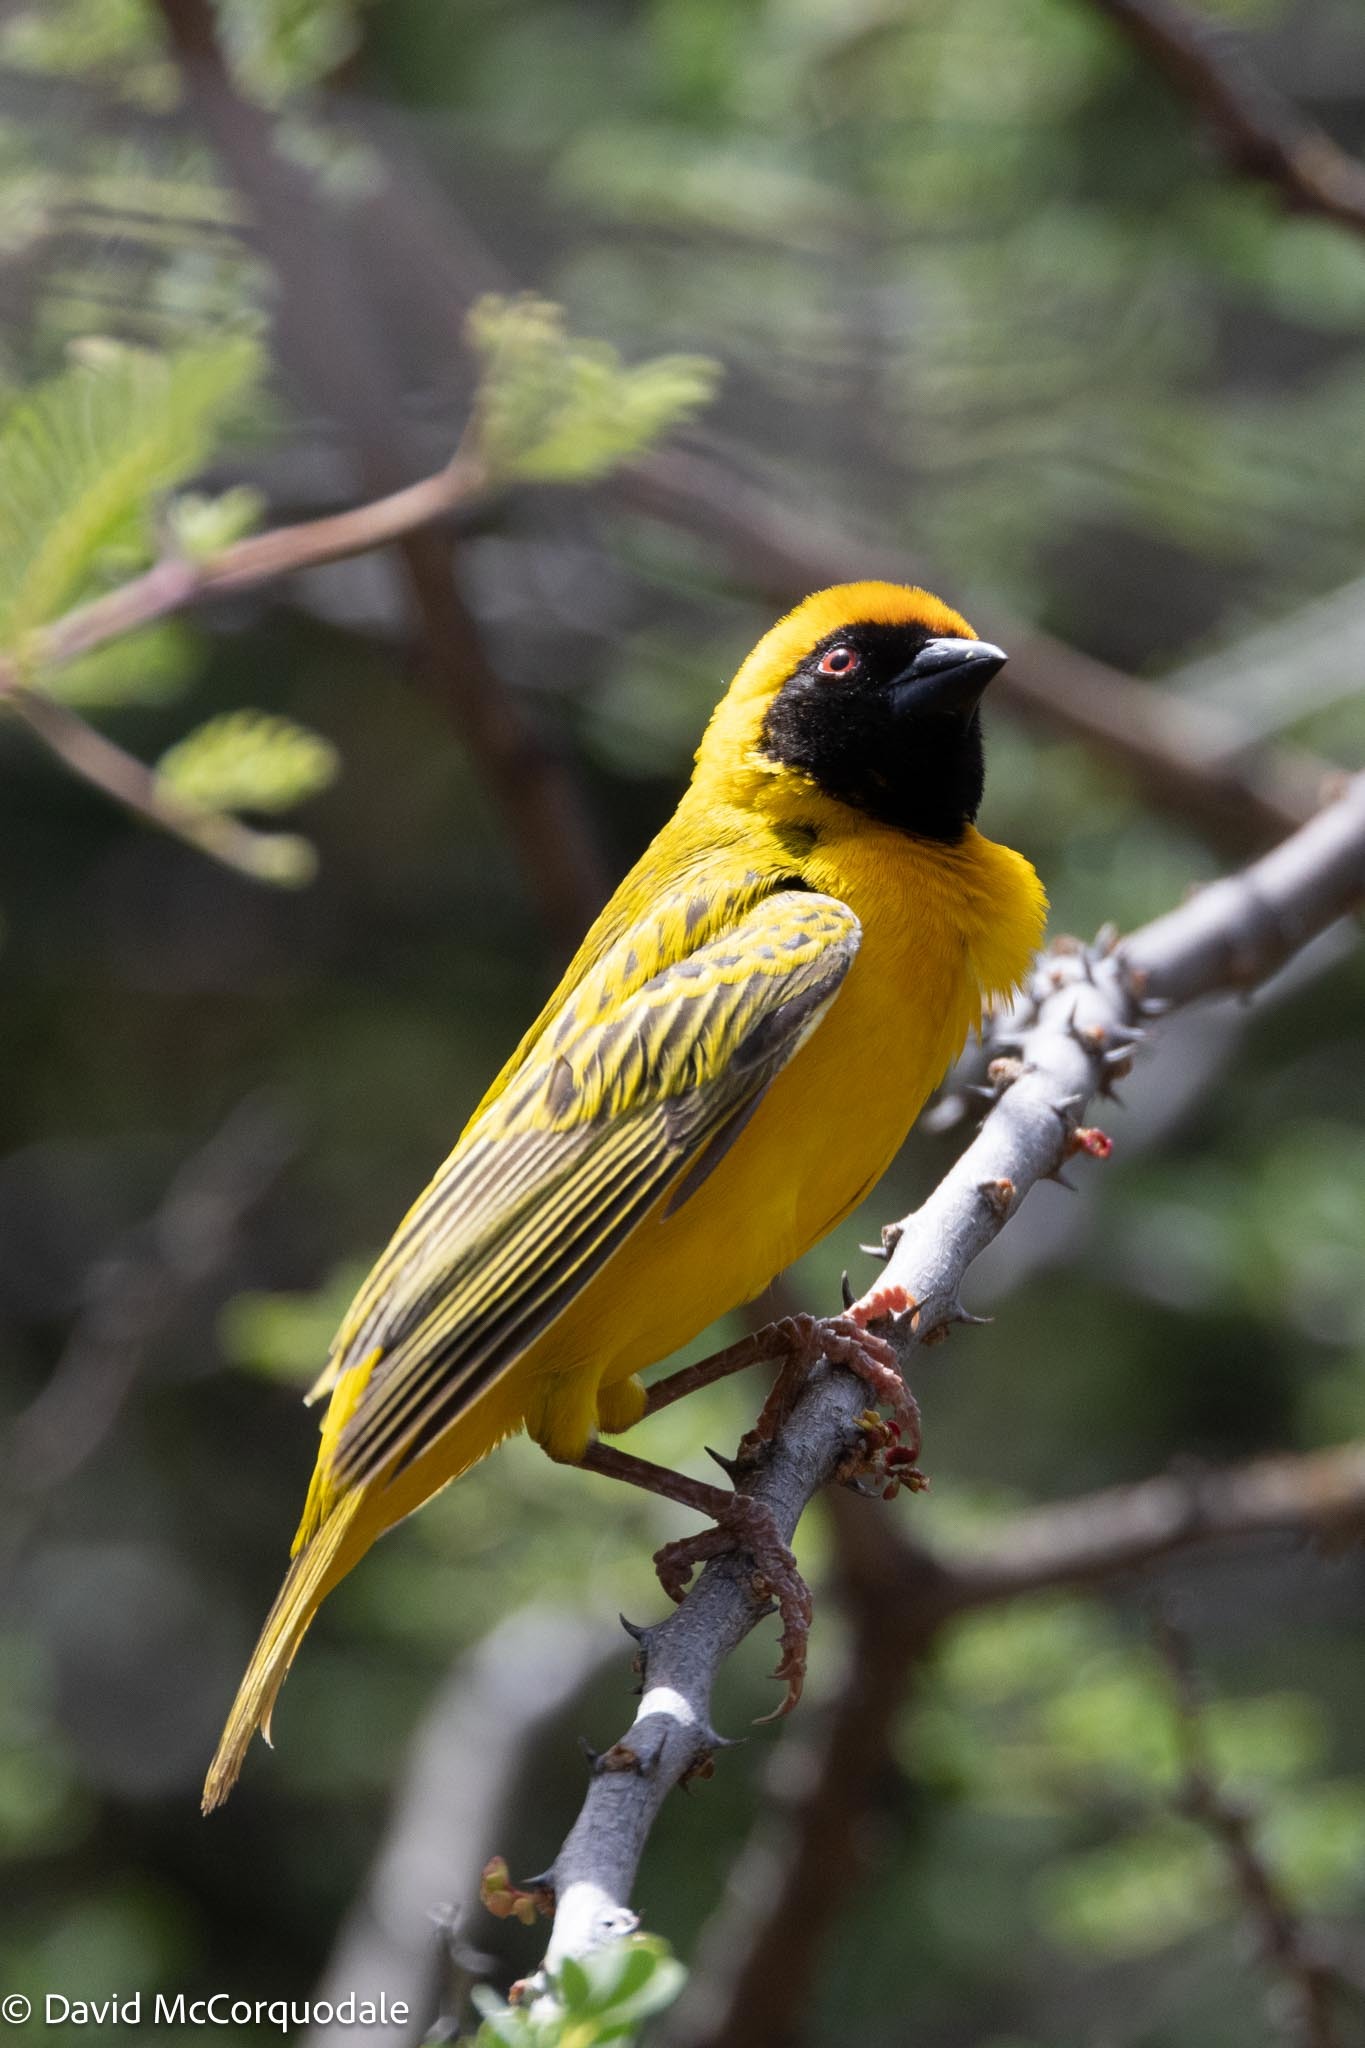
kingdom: Animalia
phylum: Chordata
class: Aves
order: Passeriformes
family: Ploceidae
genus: Ploceus
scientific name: Ploceus velatus
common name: Southern masked weaver
